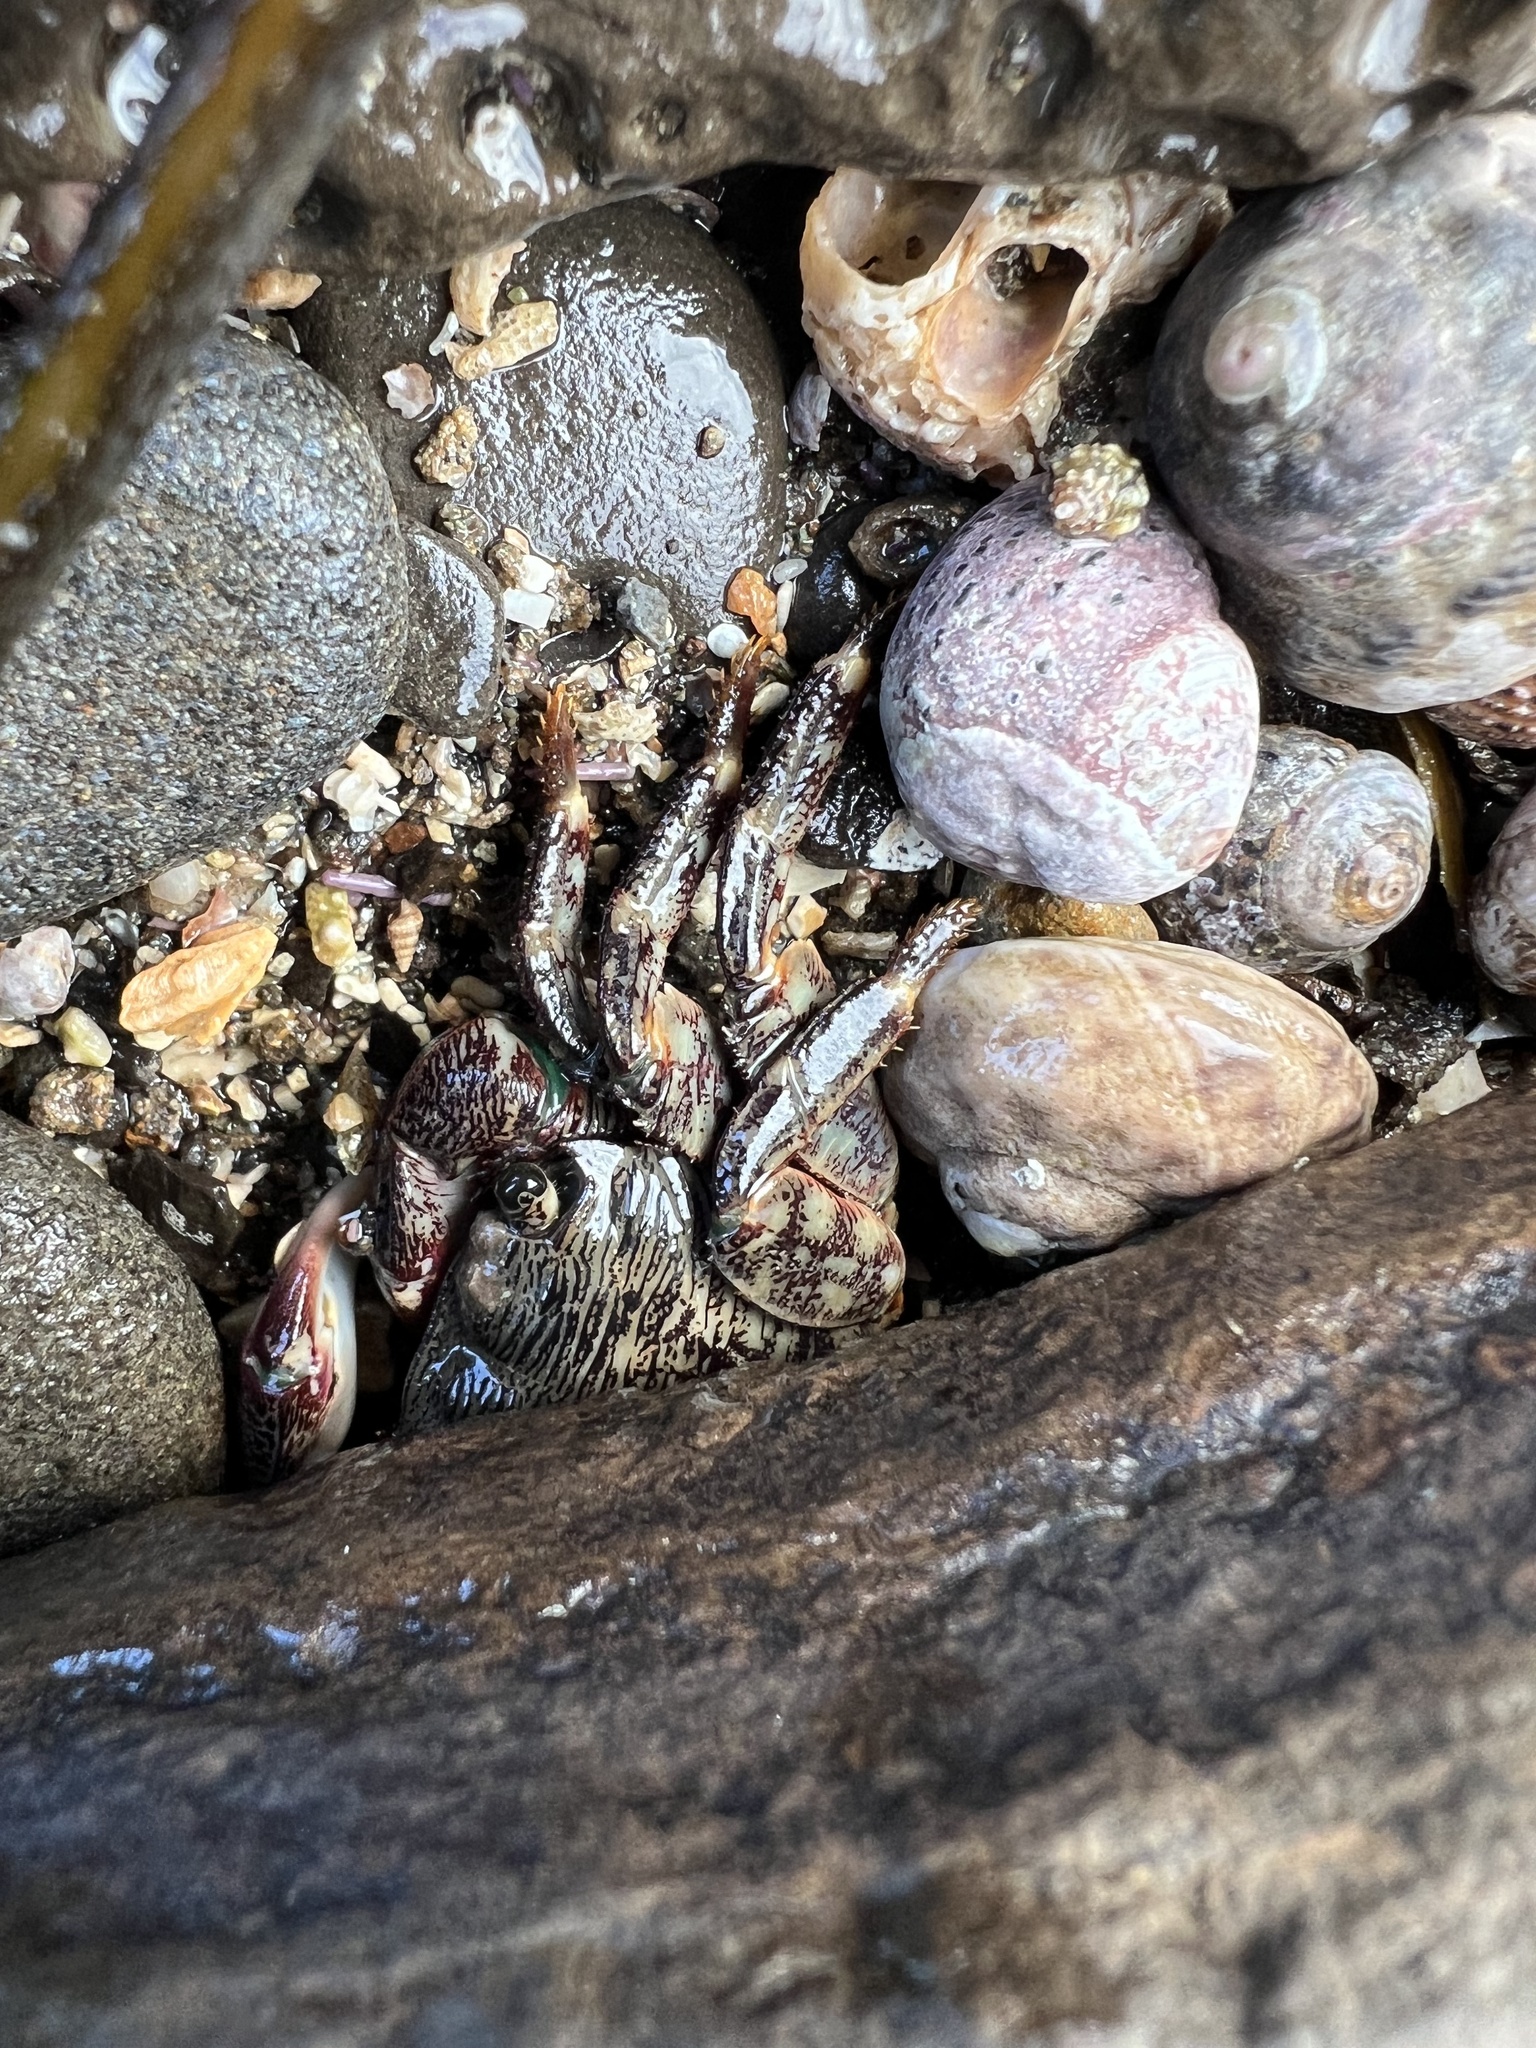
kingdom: Animalia
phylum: Arthropoda
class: Malacostraca
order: Decapoda
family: Grapsidae
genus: Pachygrapsus
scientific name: Pachygrapsus crassipes
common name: Striped shore crab
